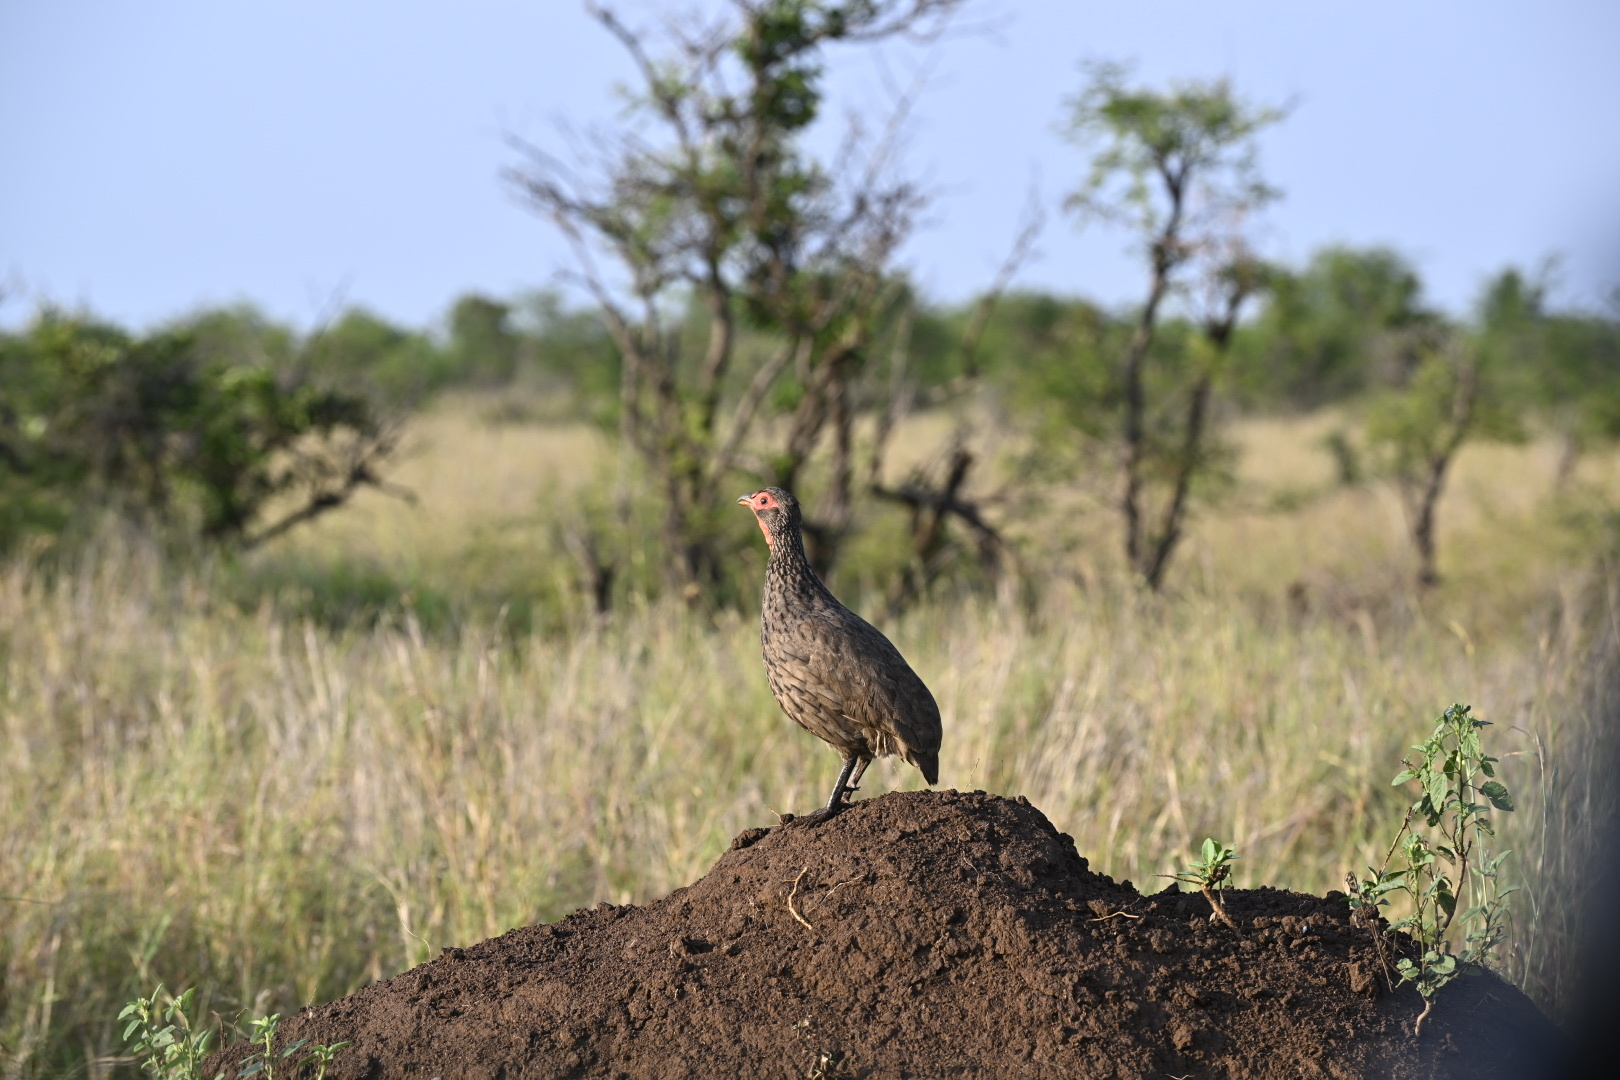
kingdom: Animalia
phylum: Chordata
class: Aves
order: Galliformes
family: Phasianidae
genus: Pternistis
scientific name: Pternistis swainsonii
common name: Swainson's spurfowl
